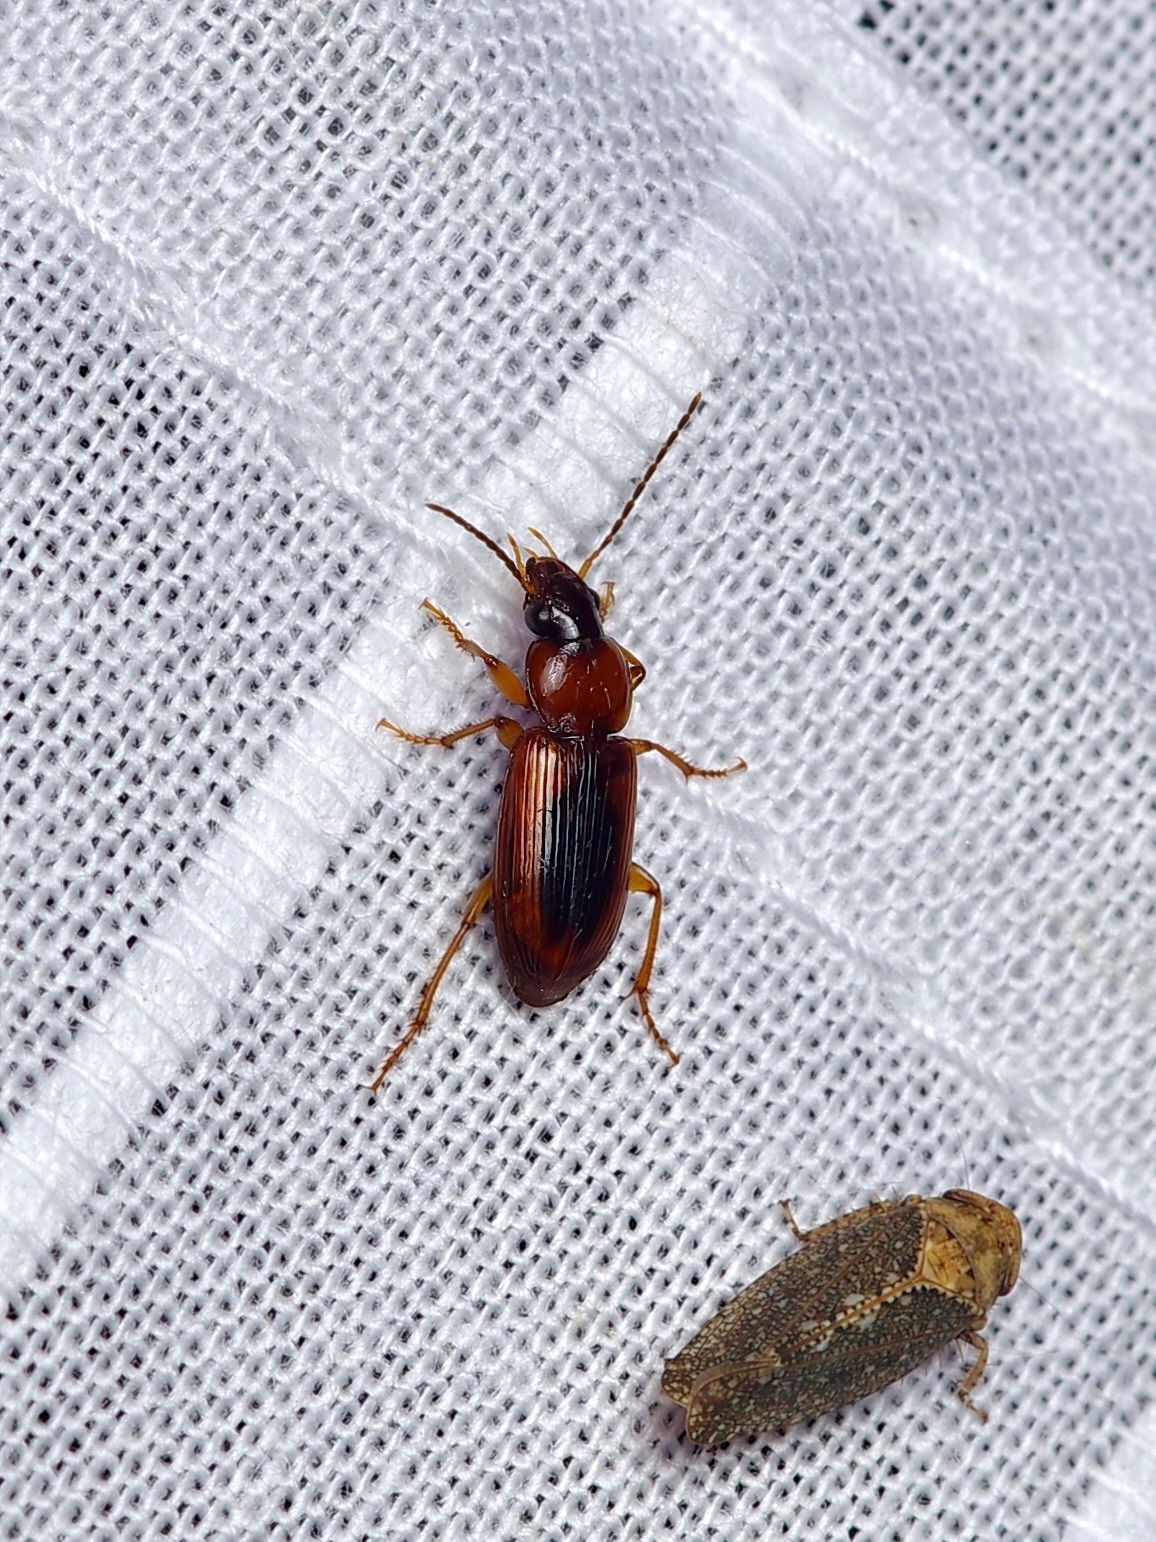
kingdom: Animalia
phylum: Arthropoda
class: Insecta
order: Coleoptera
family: Carabidae
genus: Stenolophus
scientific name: Stenolophus dissimilis
